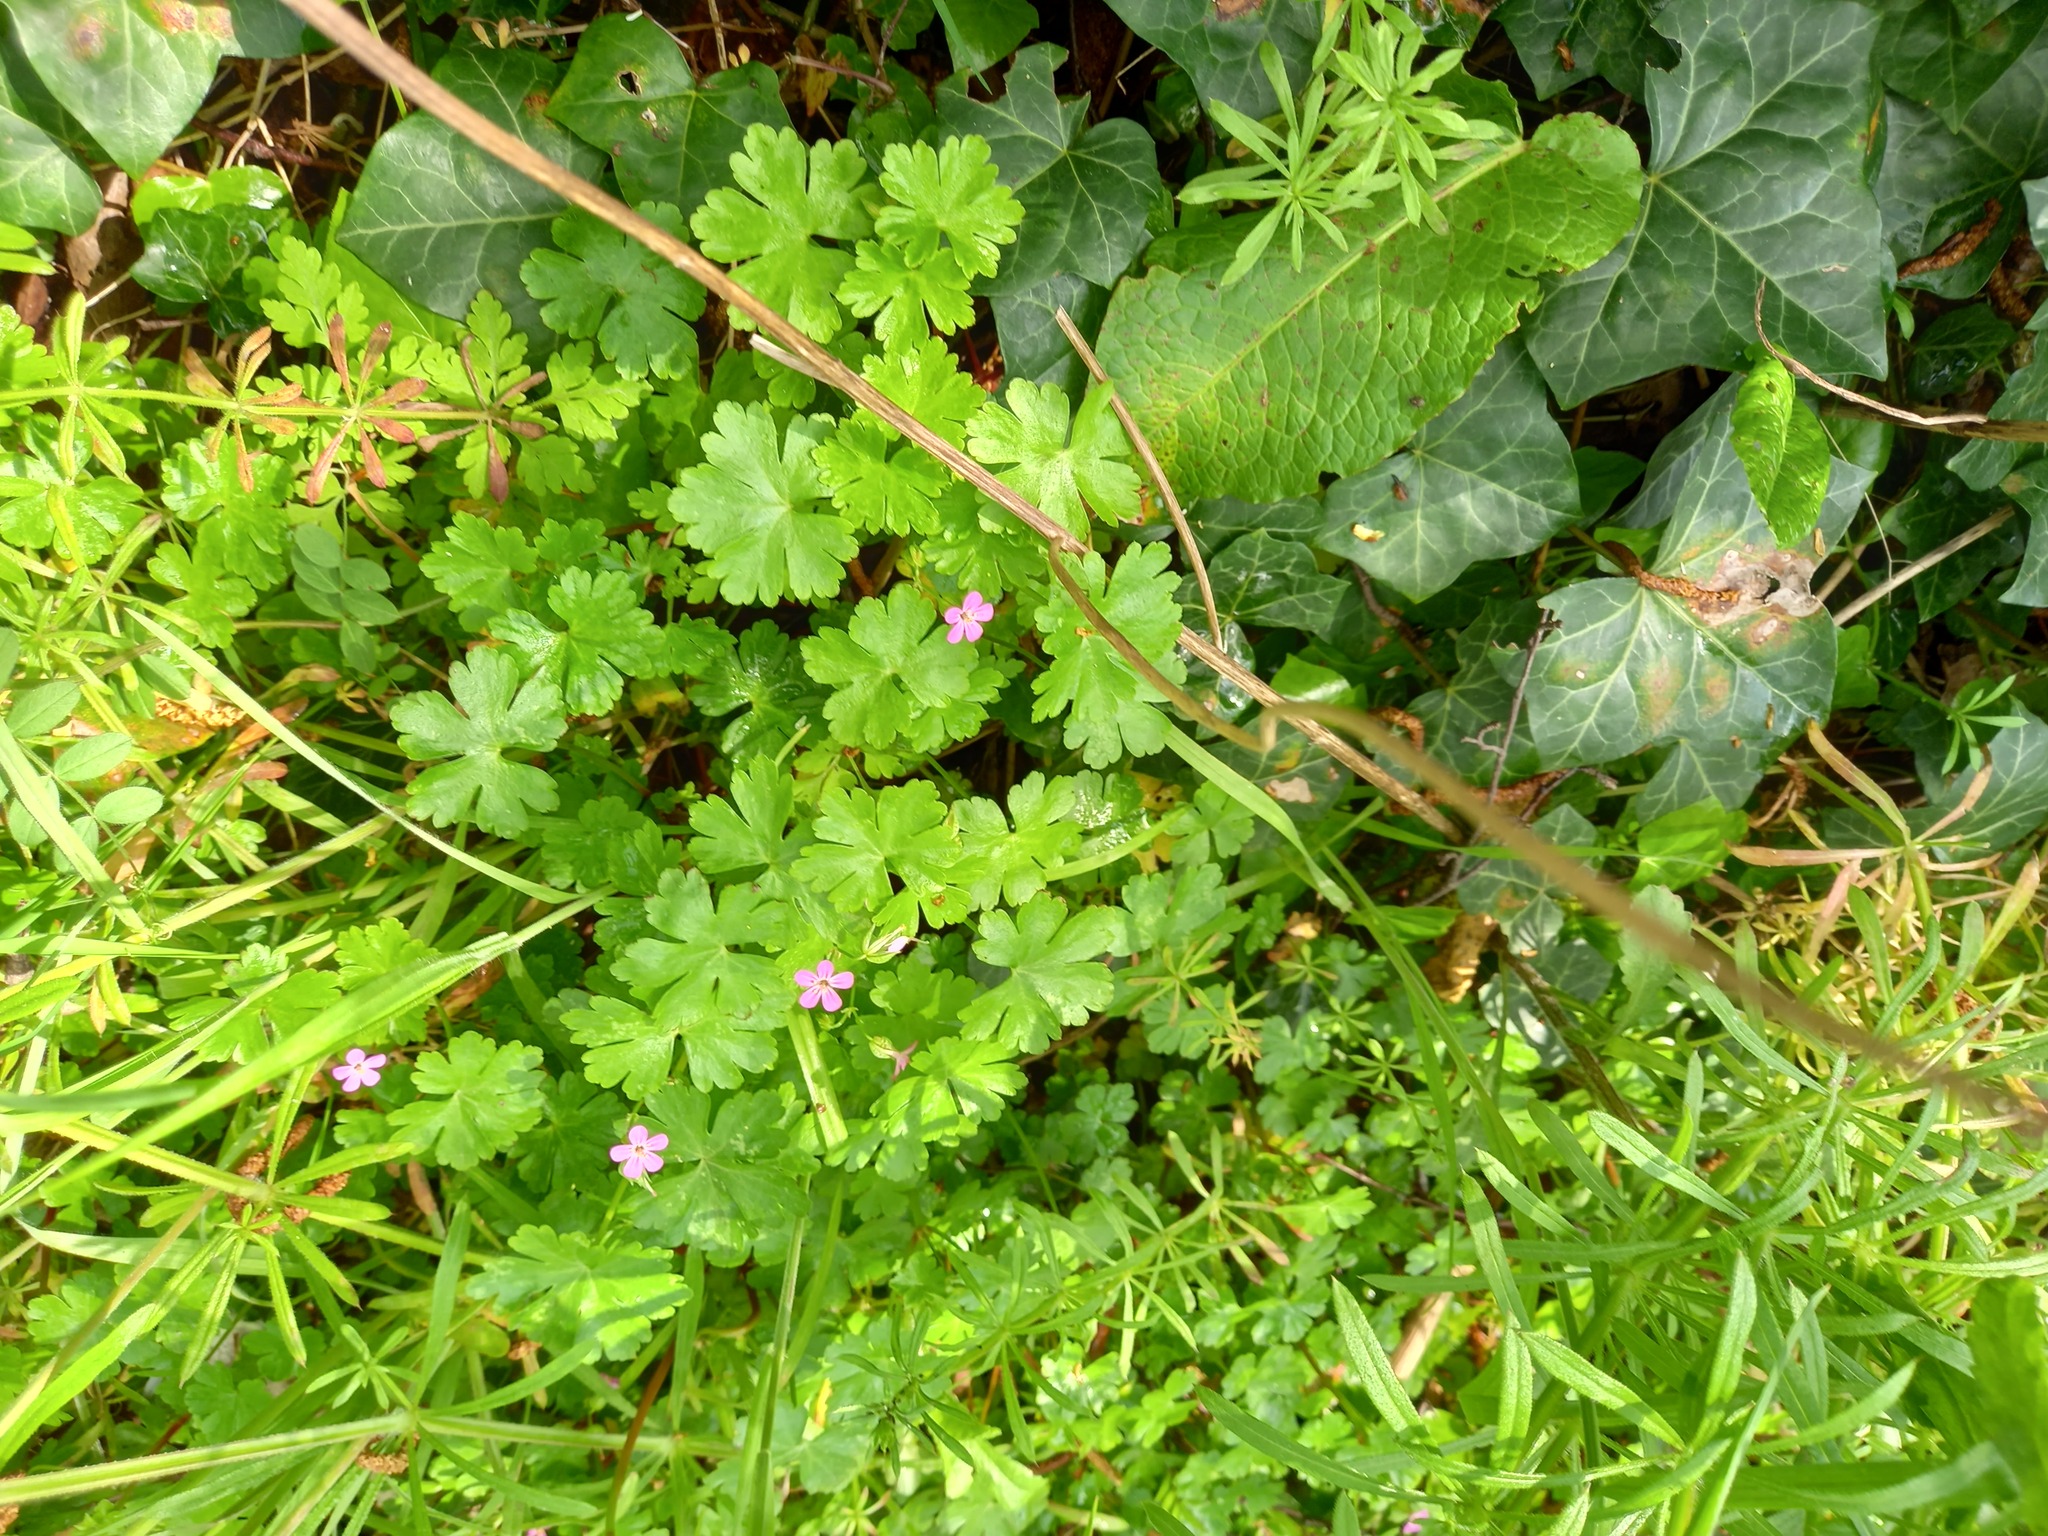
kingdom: Plantae
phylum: Tracheophyta
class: Magnoliopsida
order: Caryophyllales
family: Polygonaceae
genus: Rumex
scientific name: Rumex obtusifolius
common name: Bitter dock
